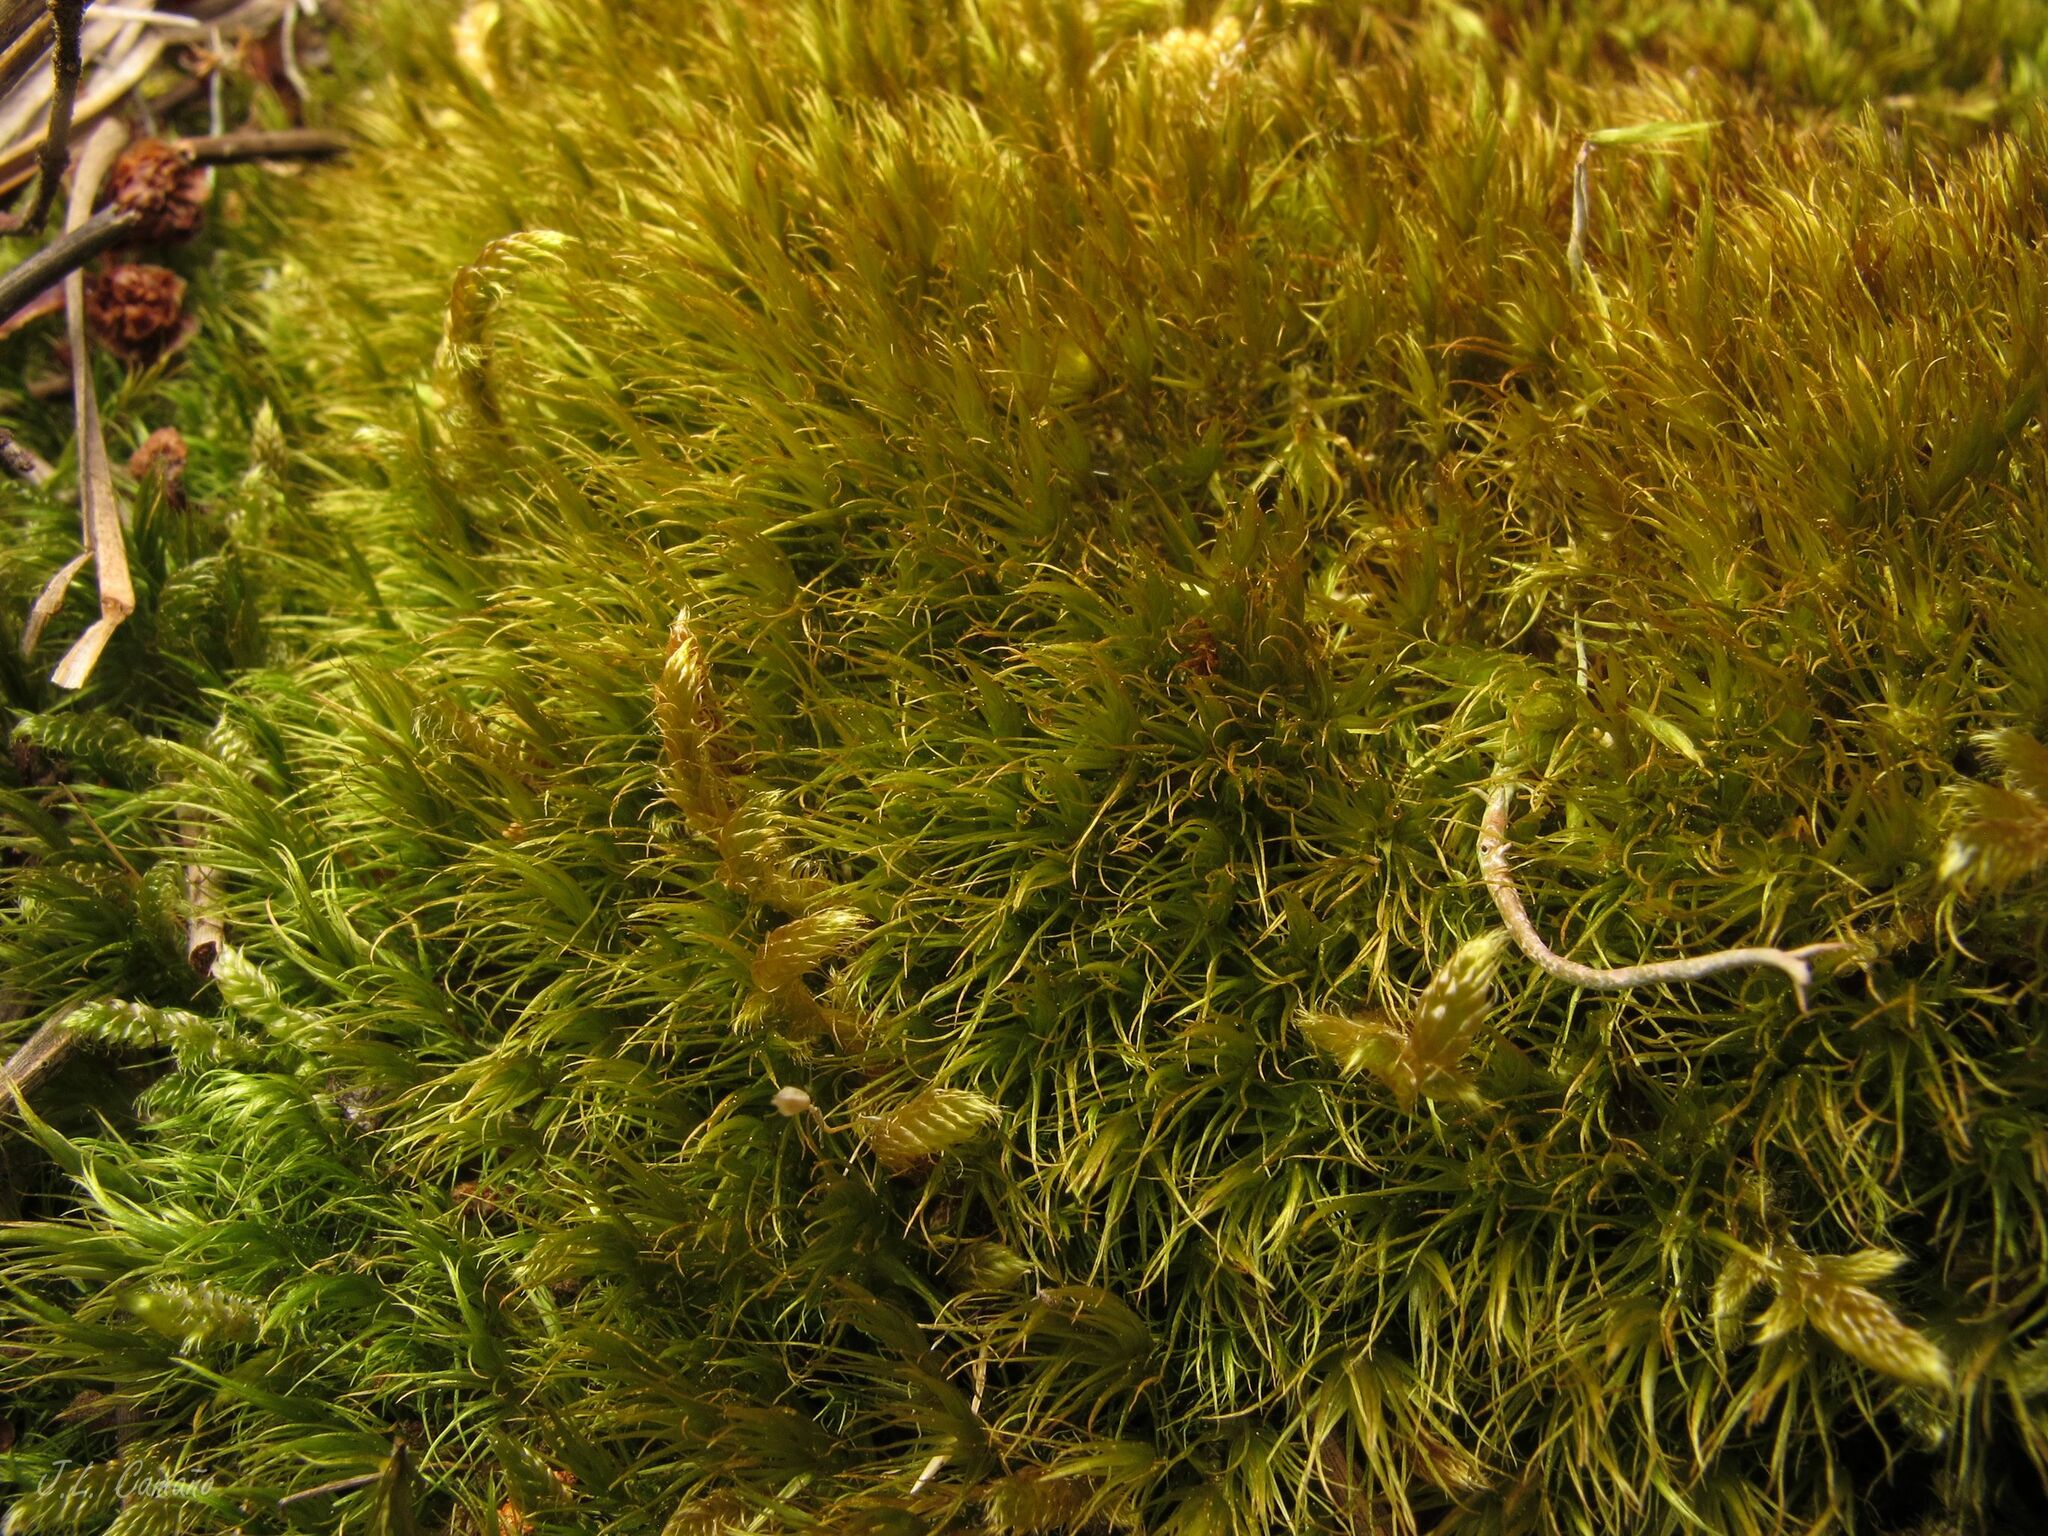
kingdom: Plantae
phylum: Bryophyta
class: Bryopsida
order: Dicranales
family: Dicranaceae
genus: Dicranum
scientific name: Dicranum scoparium
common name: Broom fork-moss
